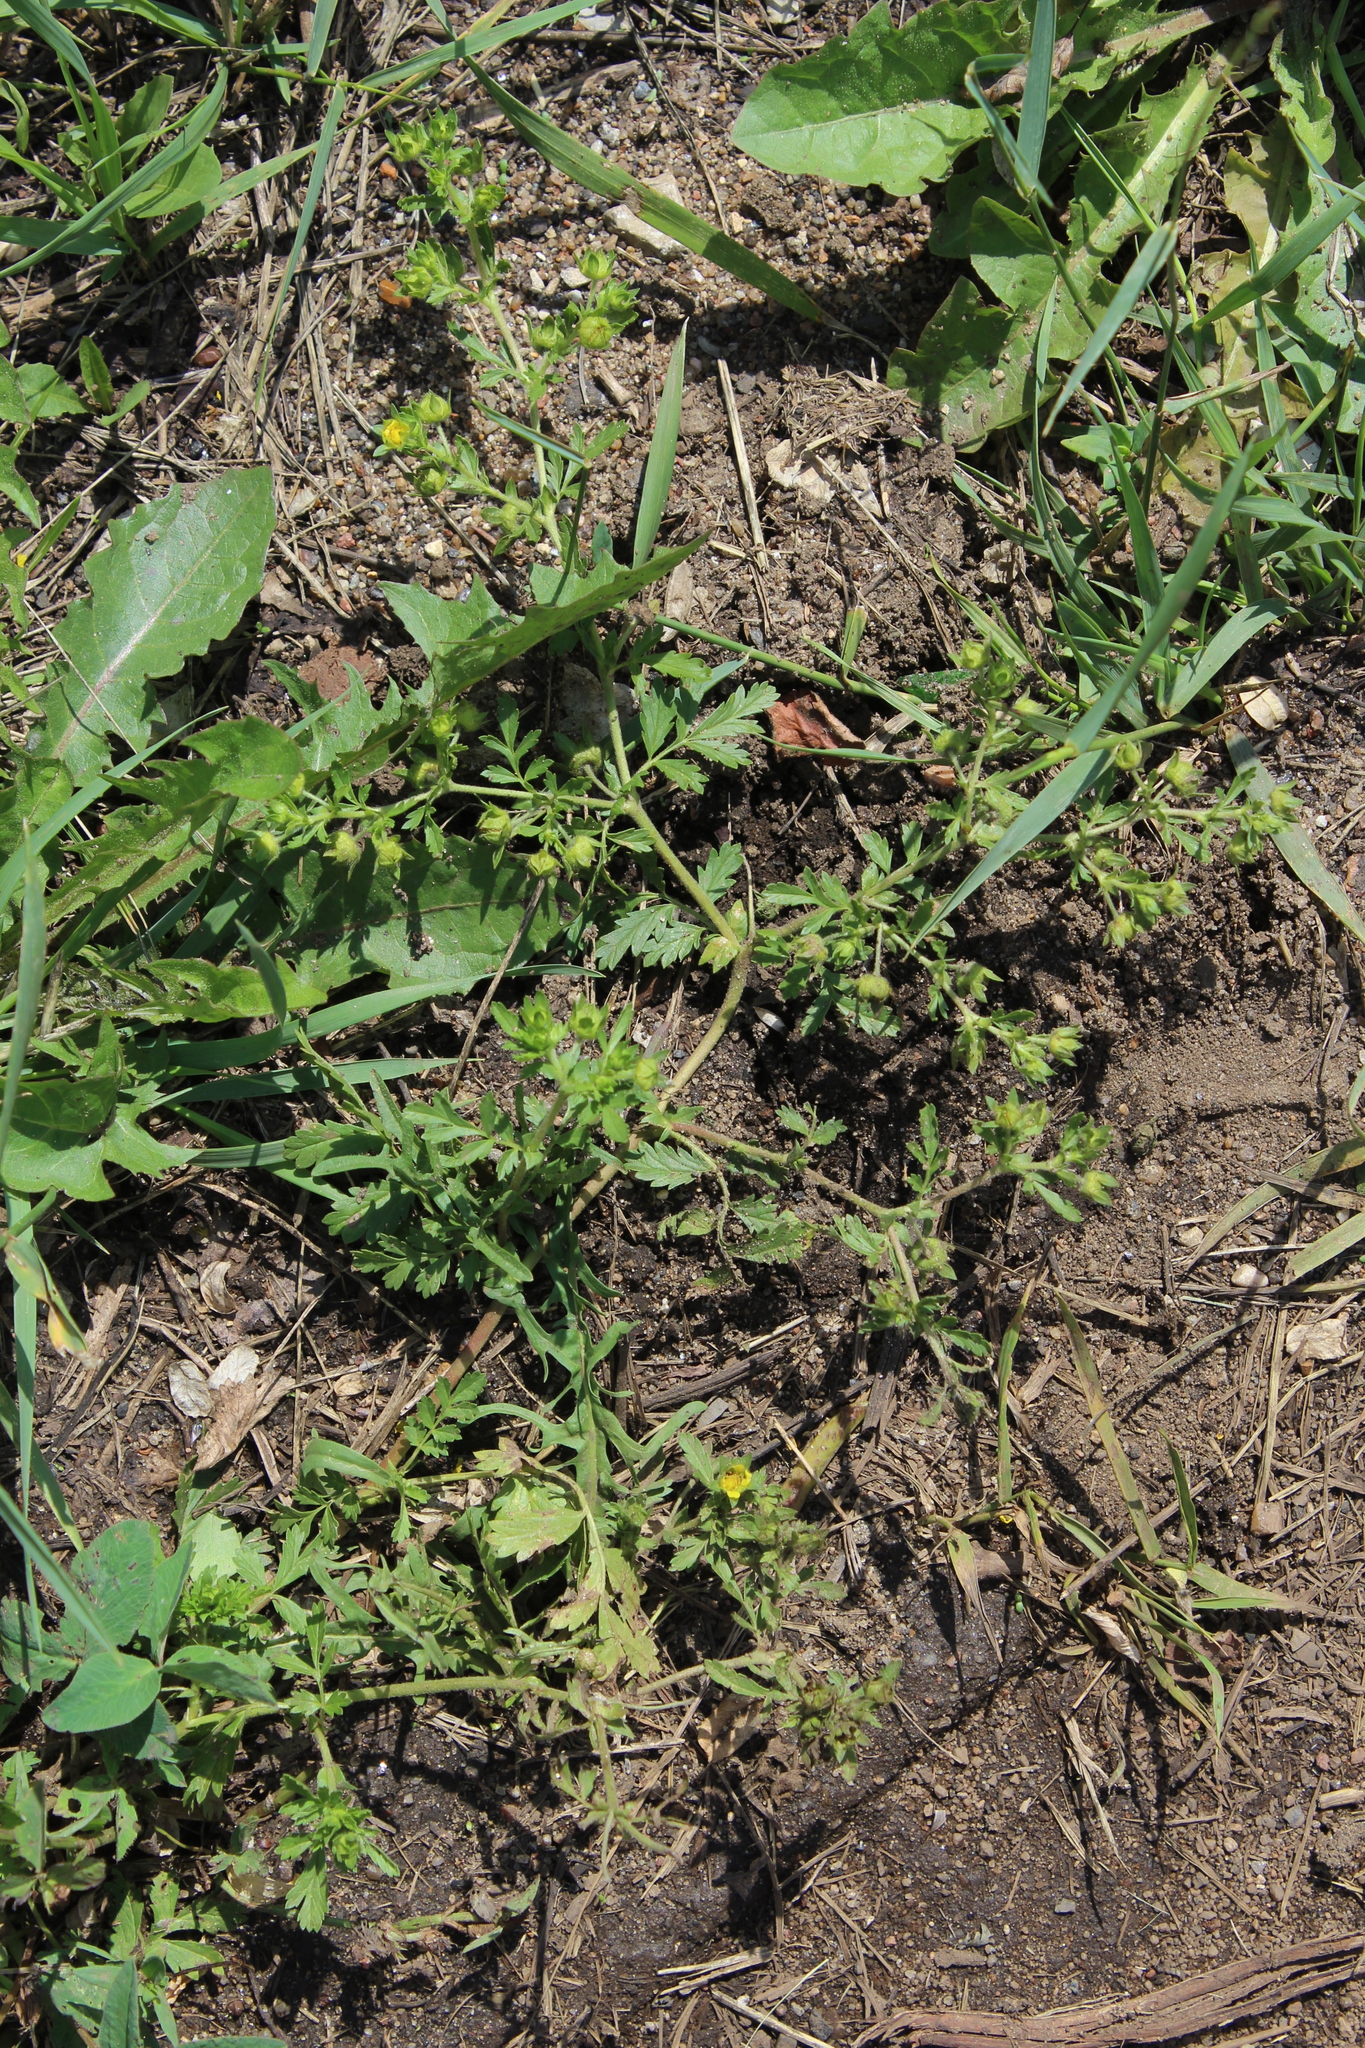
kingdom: Plantae
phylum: Tracheophyta
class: Magnoliopsida
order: Rosales
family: Rosaceae
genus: Potentilla
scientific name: Potentilla supina
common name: Prostrate cinquefoil
